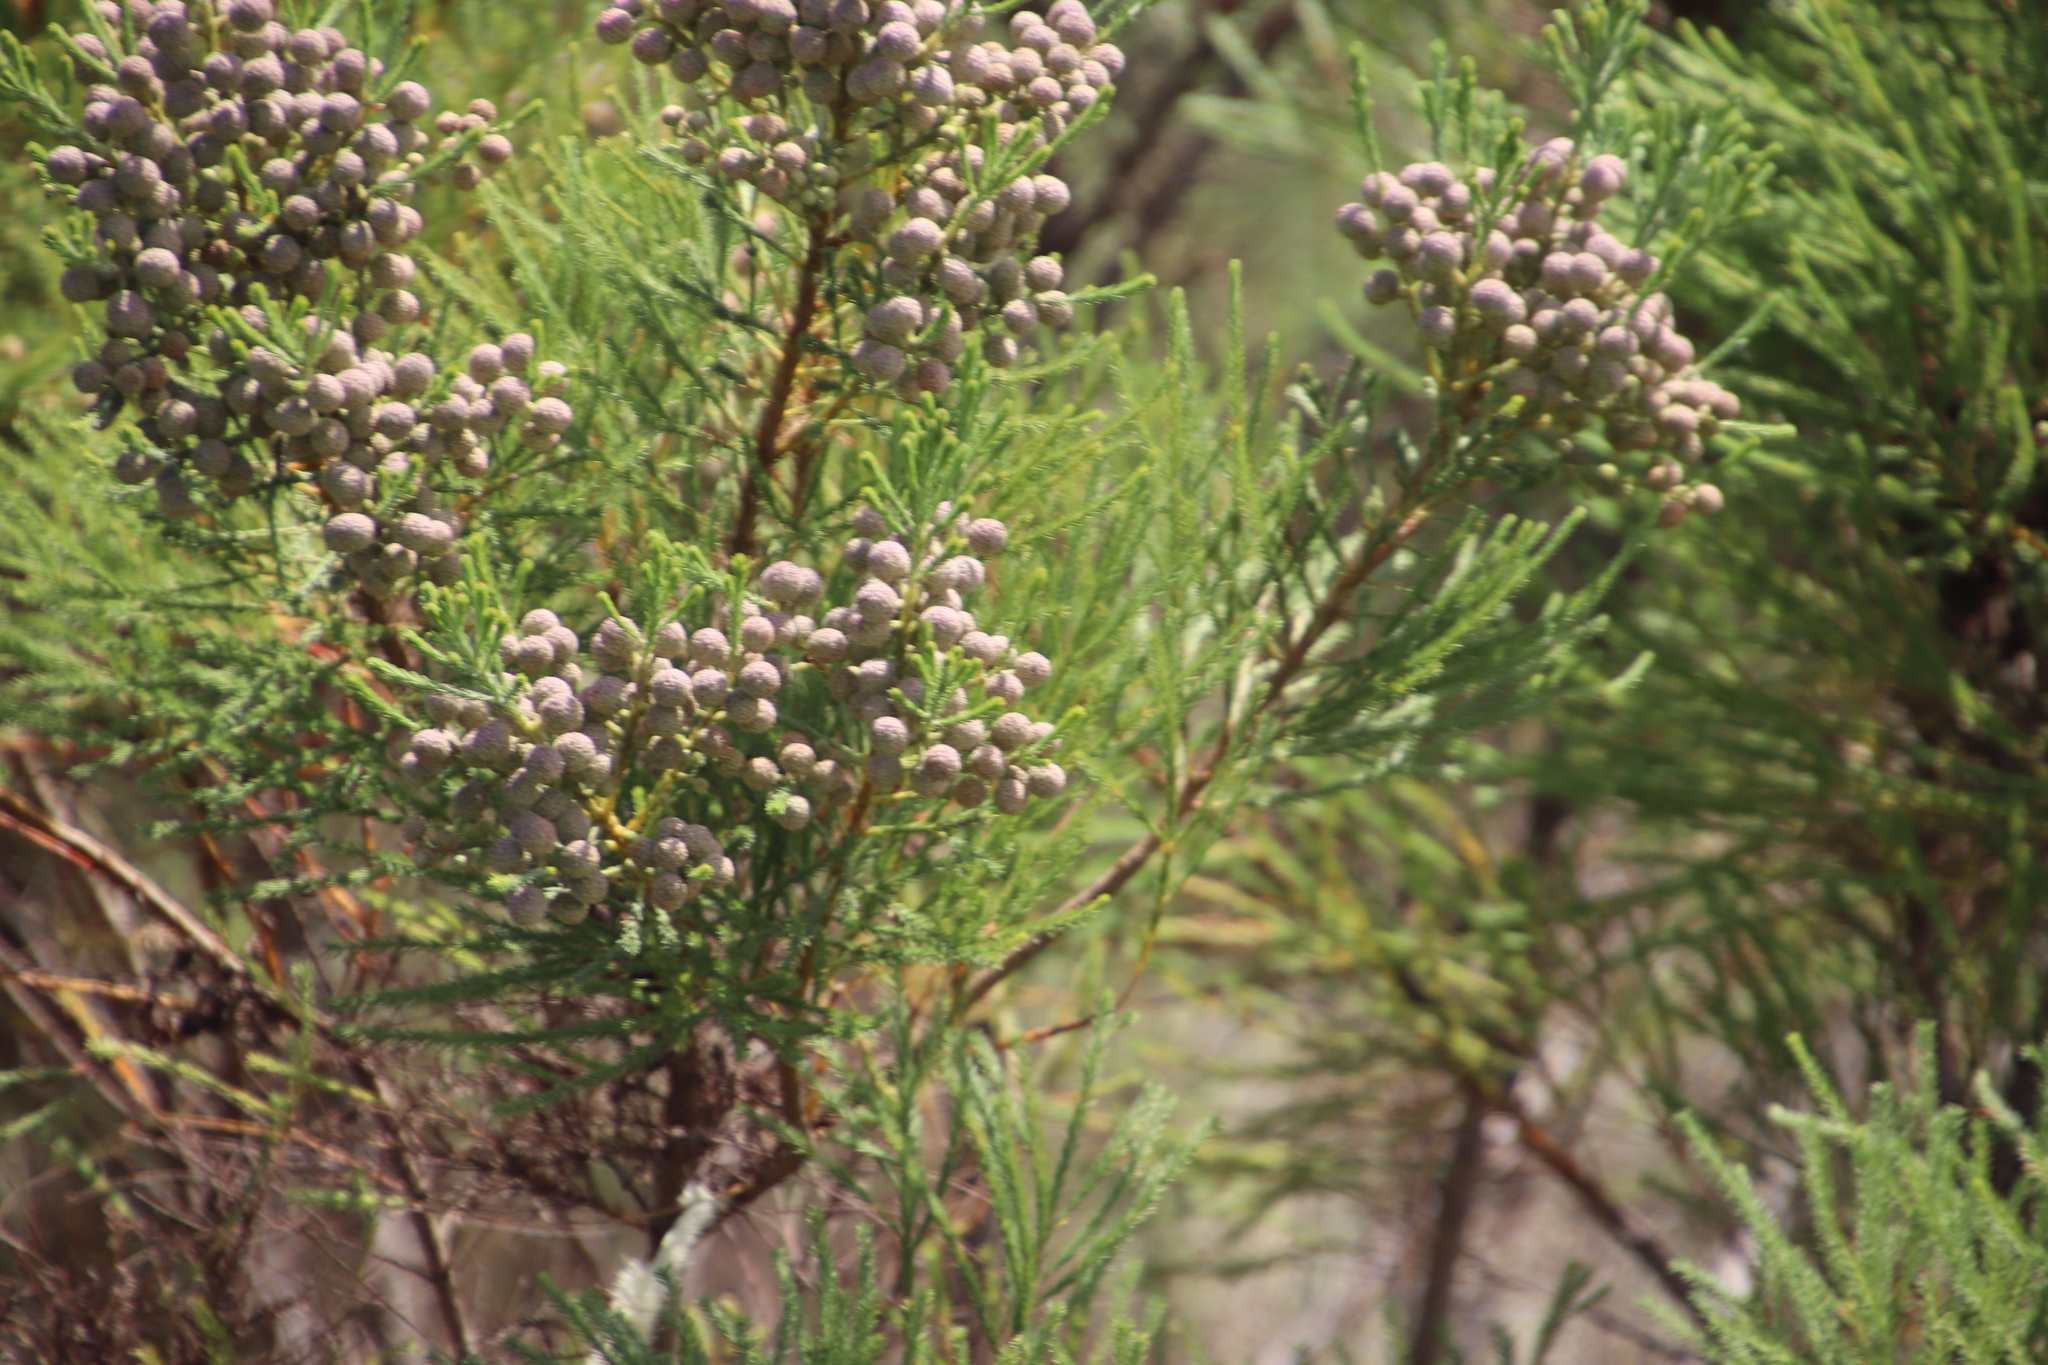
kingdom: Plantae
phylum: Tracheophyta
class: Magnoliopsida
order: Bruniales
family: Bruniaceae
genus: Berzelia
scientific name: Berzelia lanuginosa
